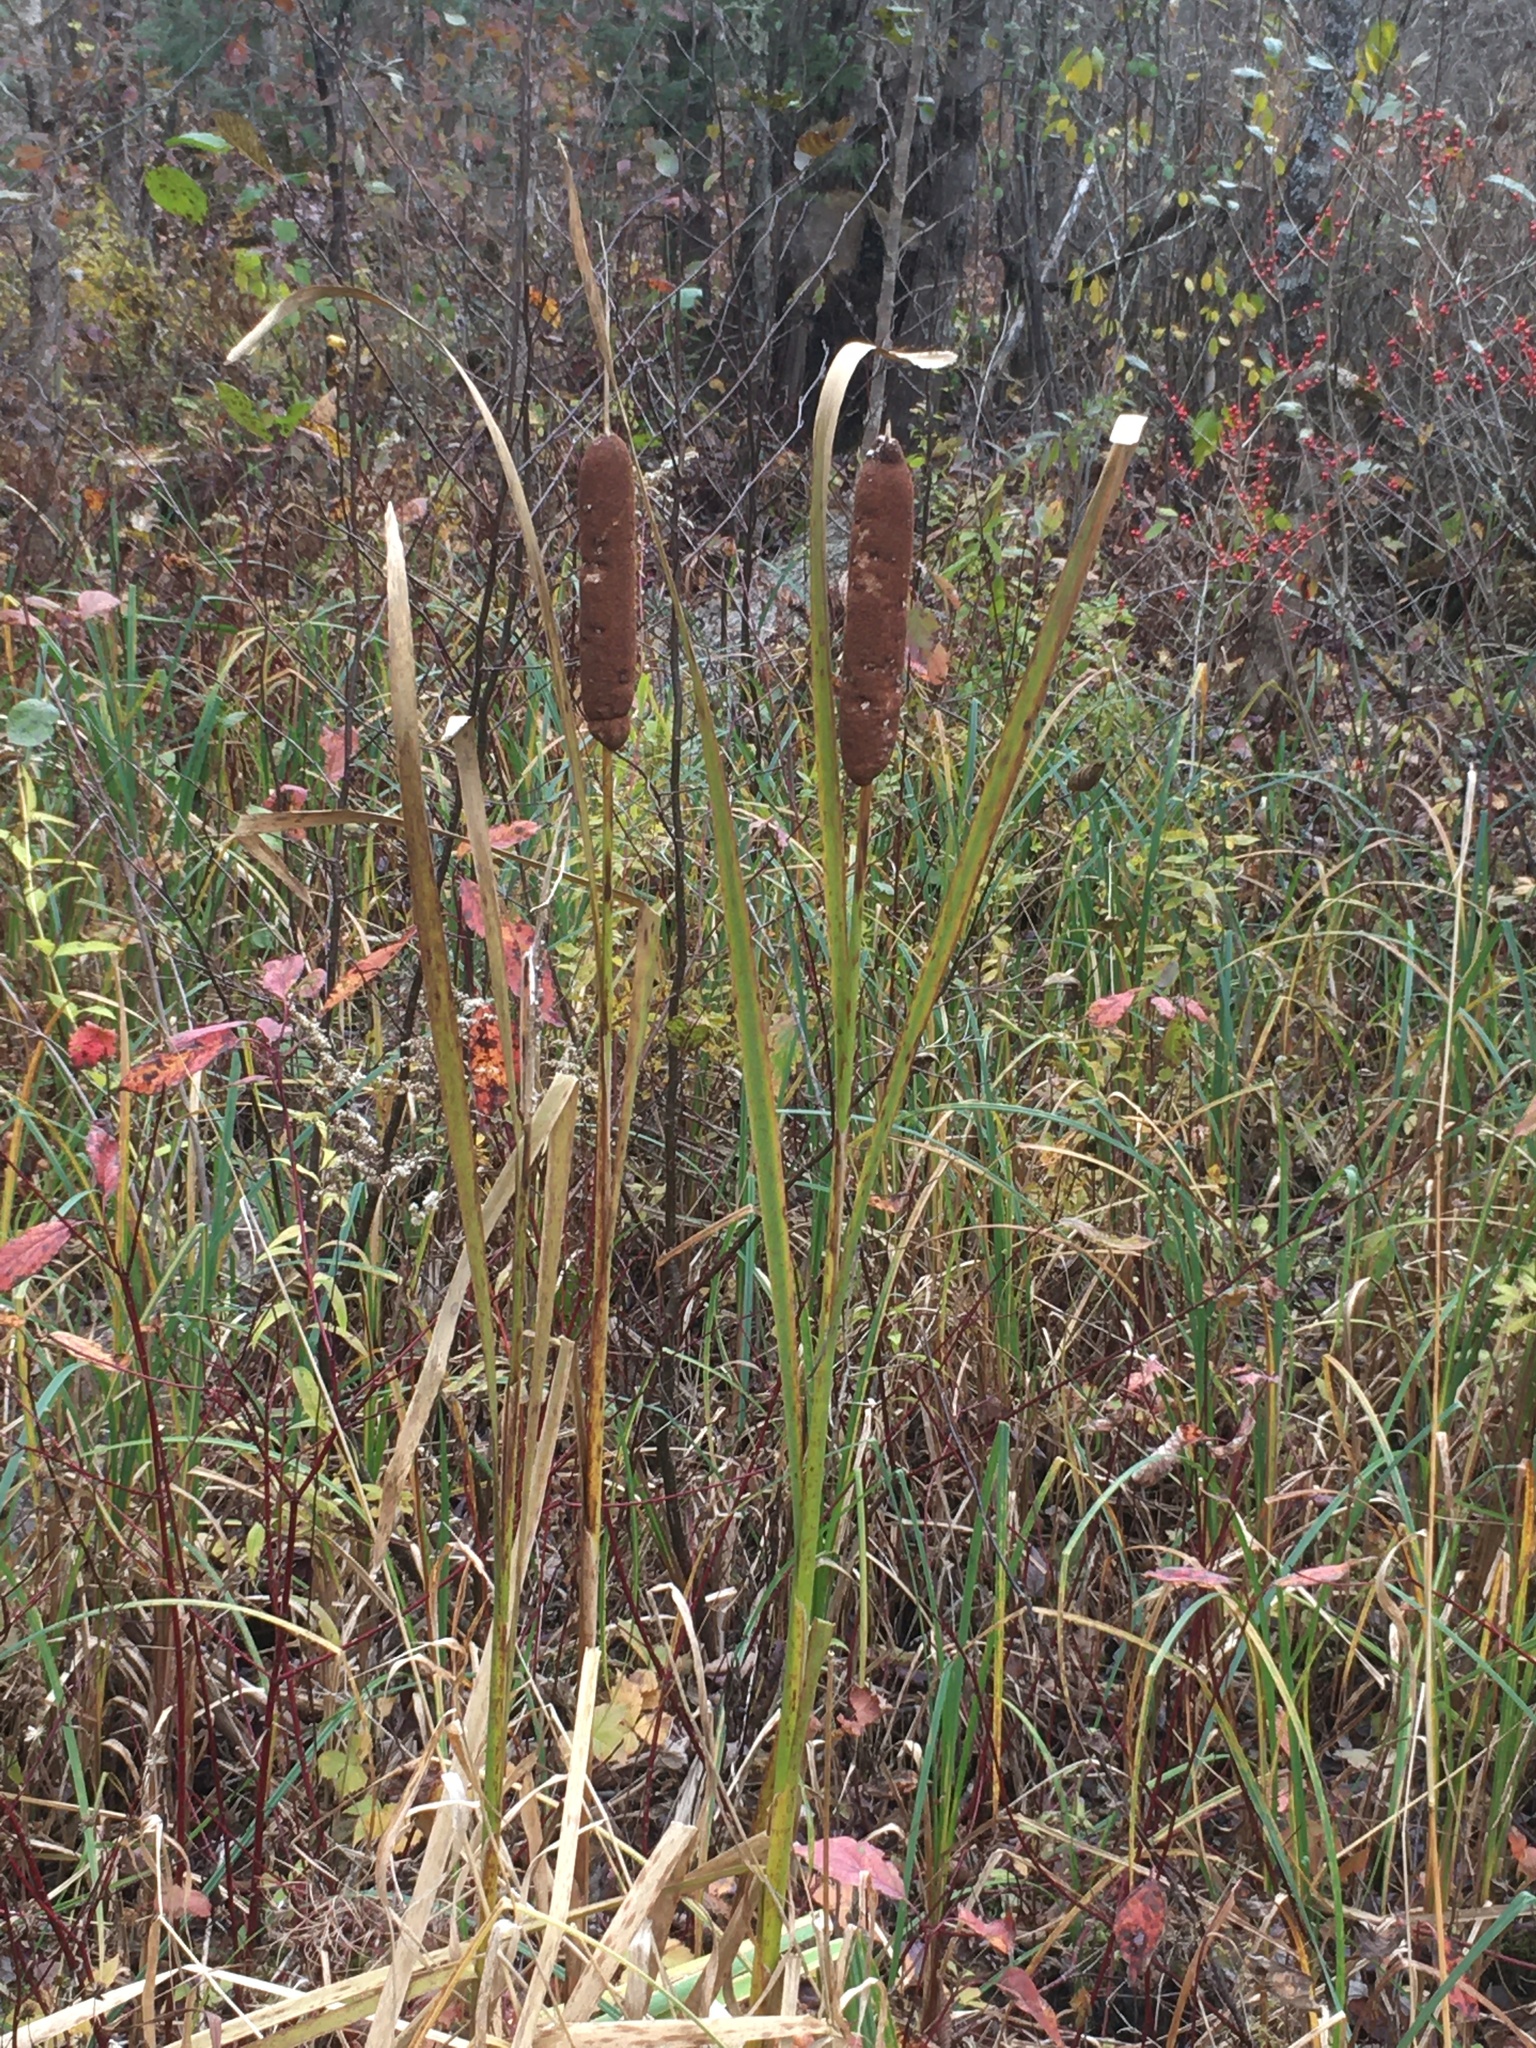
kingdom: Plantae
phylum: Tracheophyta
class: Liliopsida
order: Poales
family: Typhaceae
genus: Typha
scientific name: Typha latifolia
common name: Broadleaf cattail
